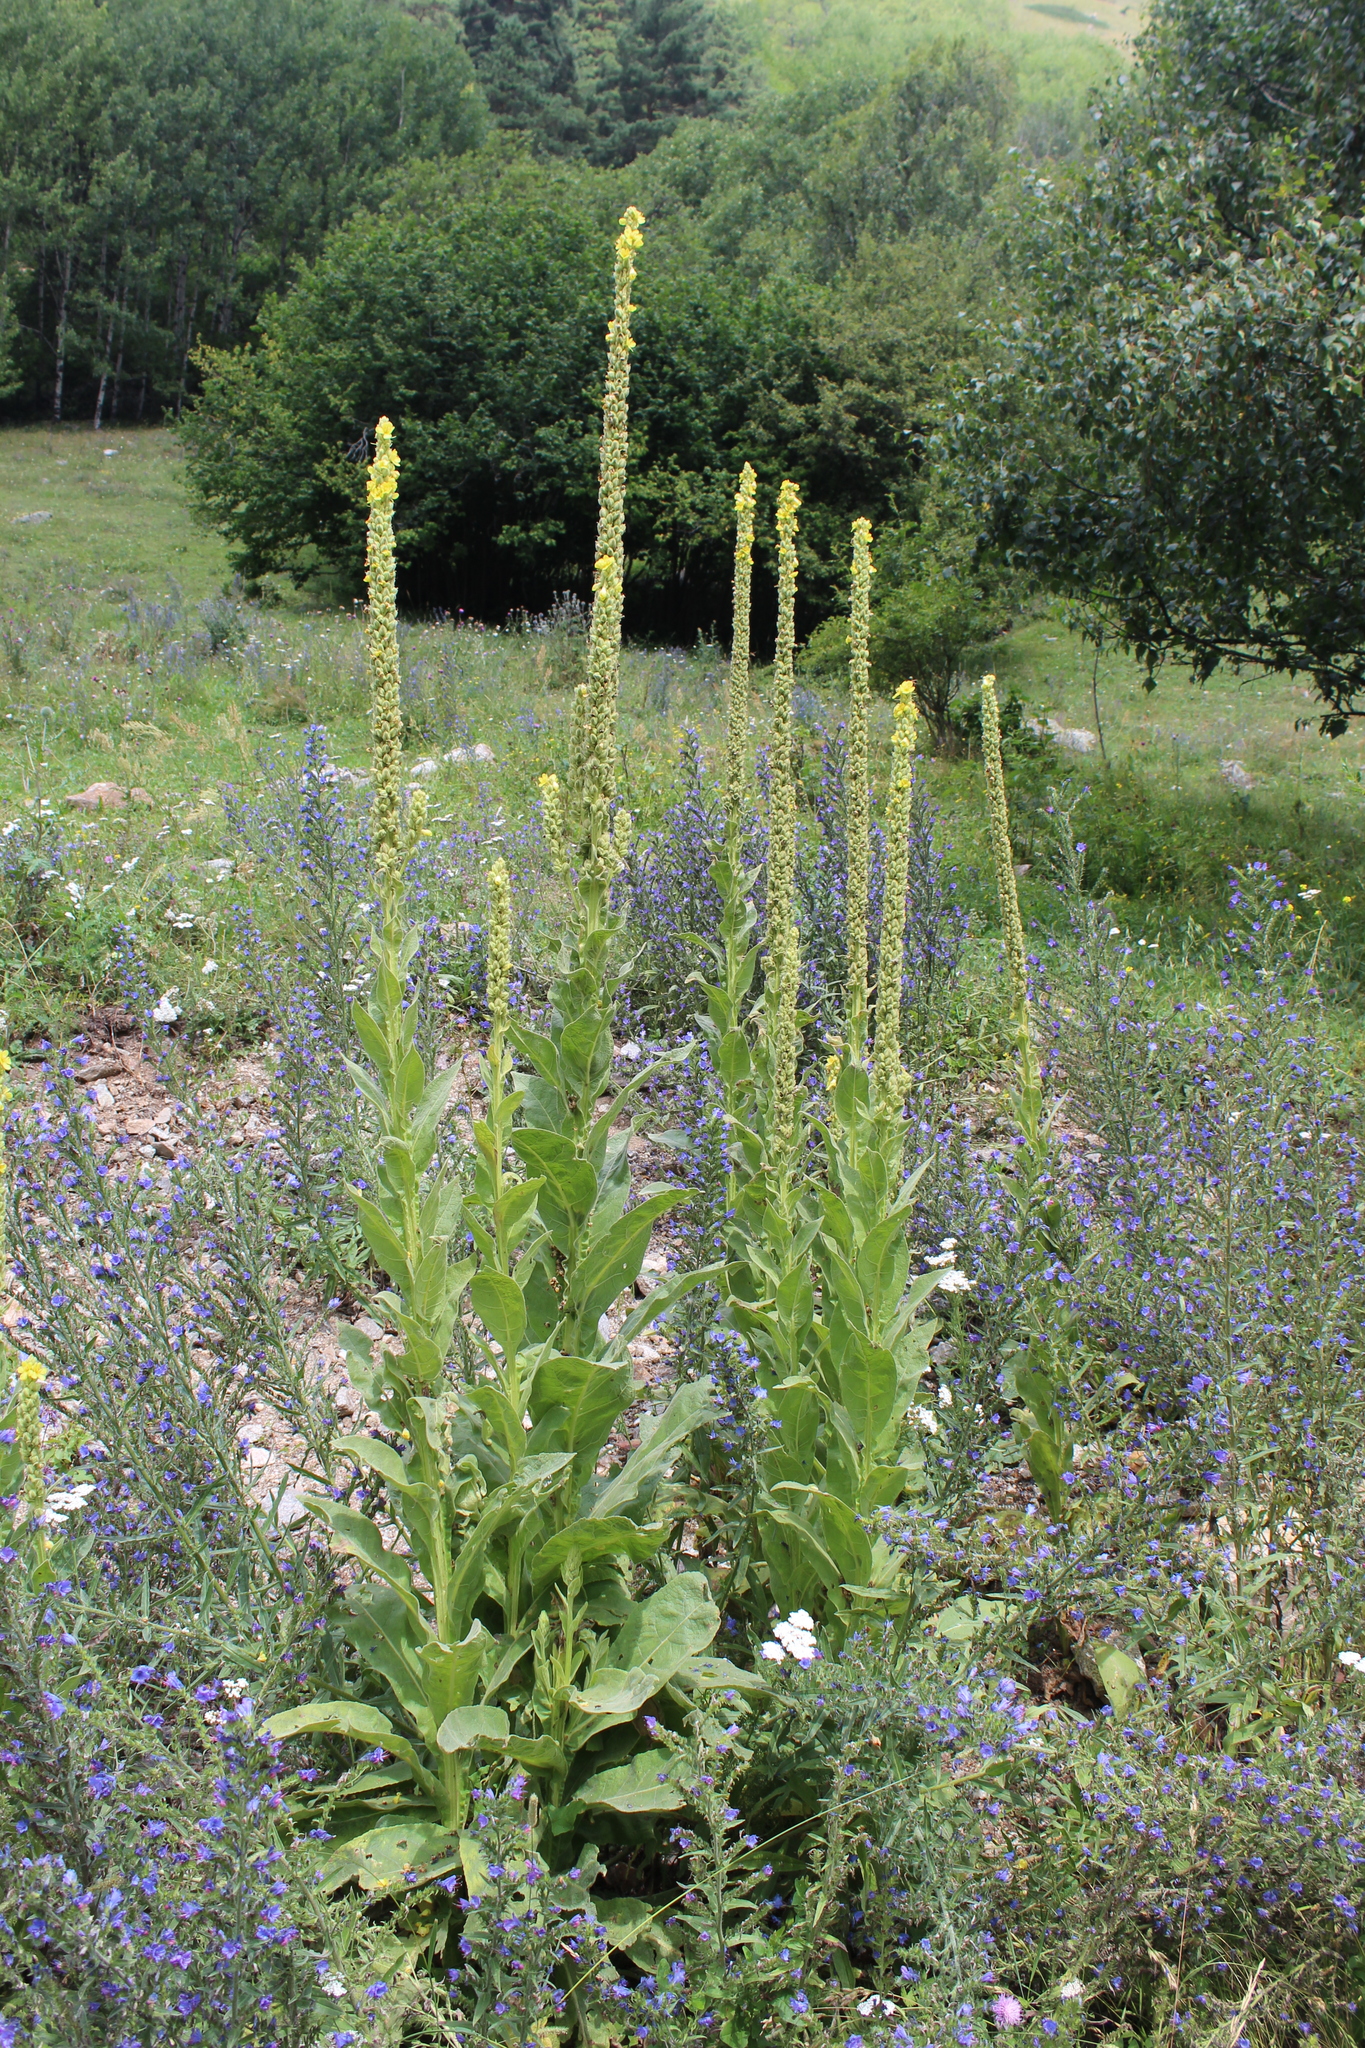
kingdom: Plantae
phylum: Tracheophyta
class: Magnoliopsida
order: Lamiales
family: Scrophulariaceae
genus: Verbascum
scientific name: Verbascum thapsus
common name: Common mullein
